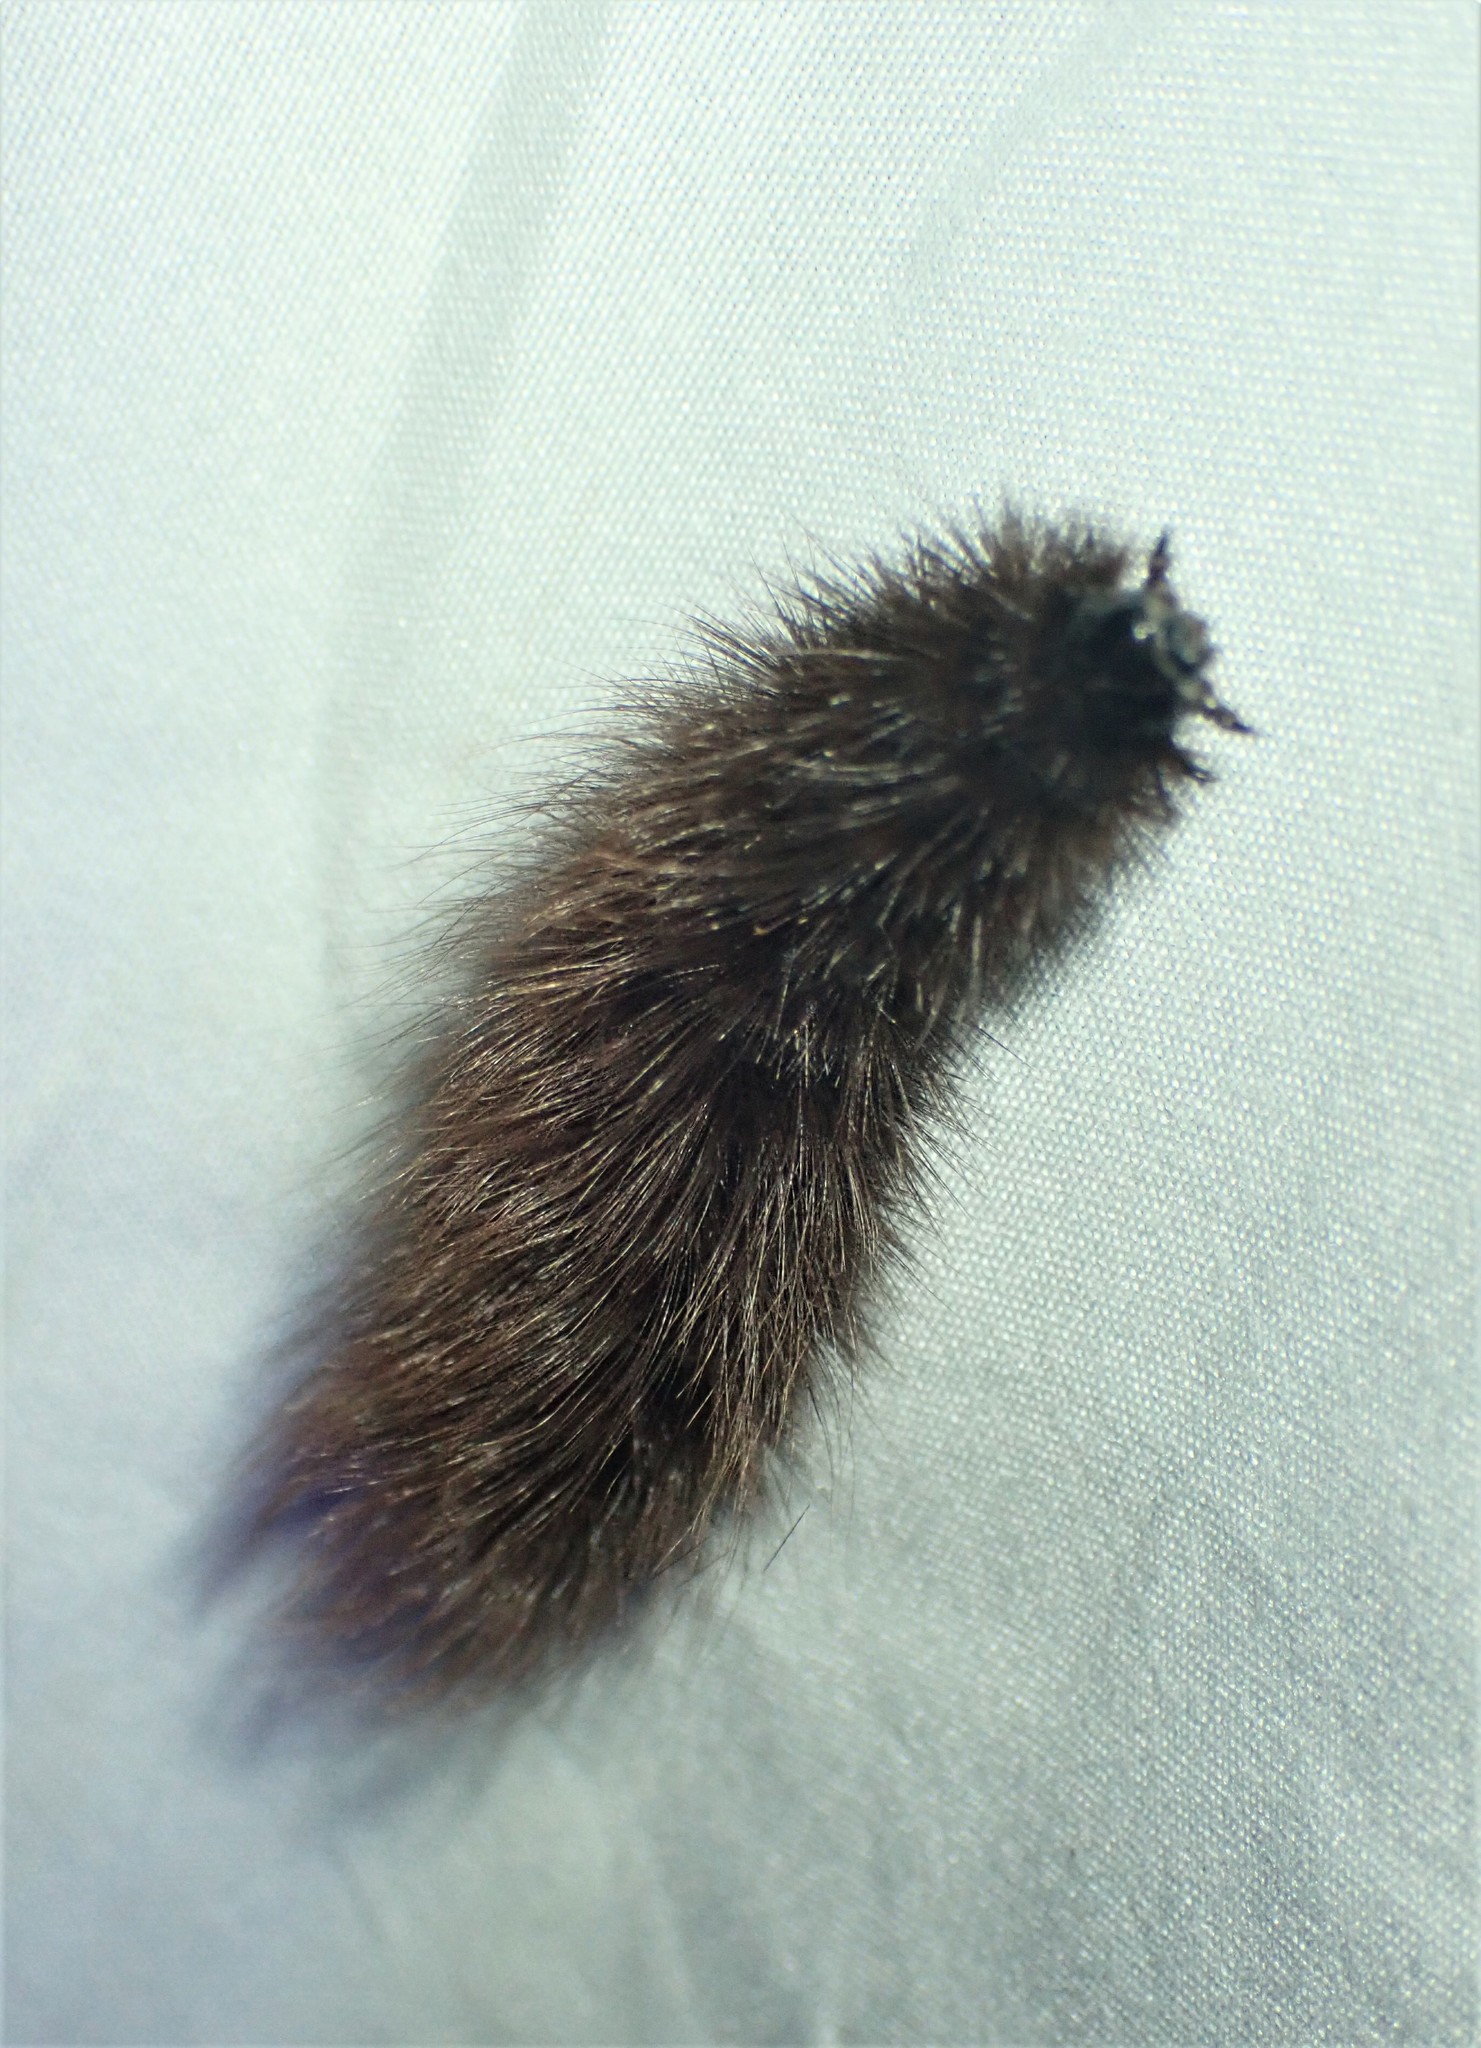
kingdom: Animalia
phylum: Arthropoda
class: Insecta
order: Lepidoptera
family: Erebidae
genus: Arctia
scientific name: Arctia parthenos
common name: St. lawrence tiger moth
